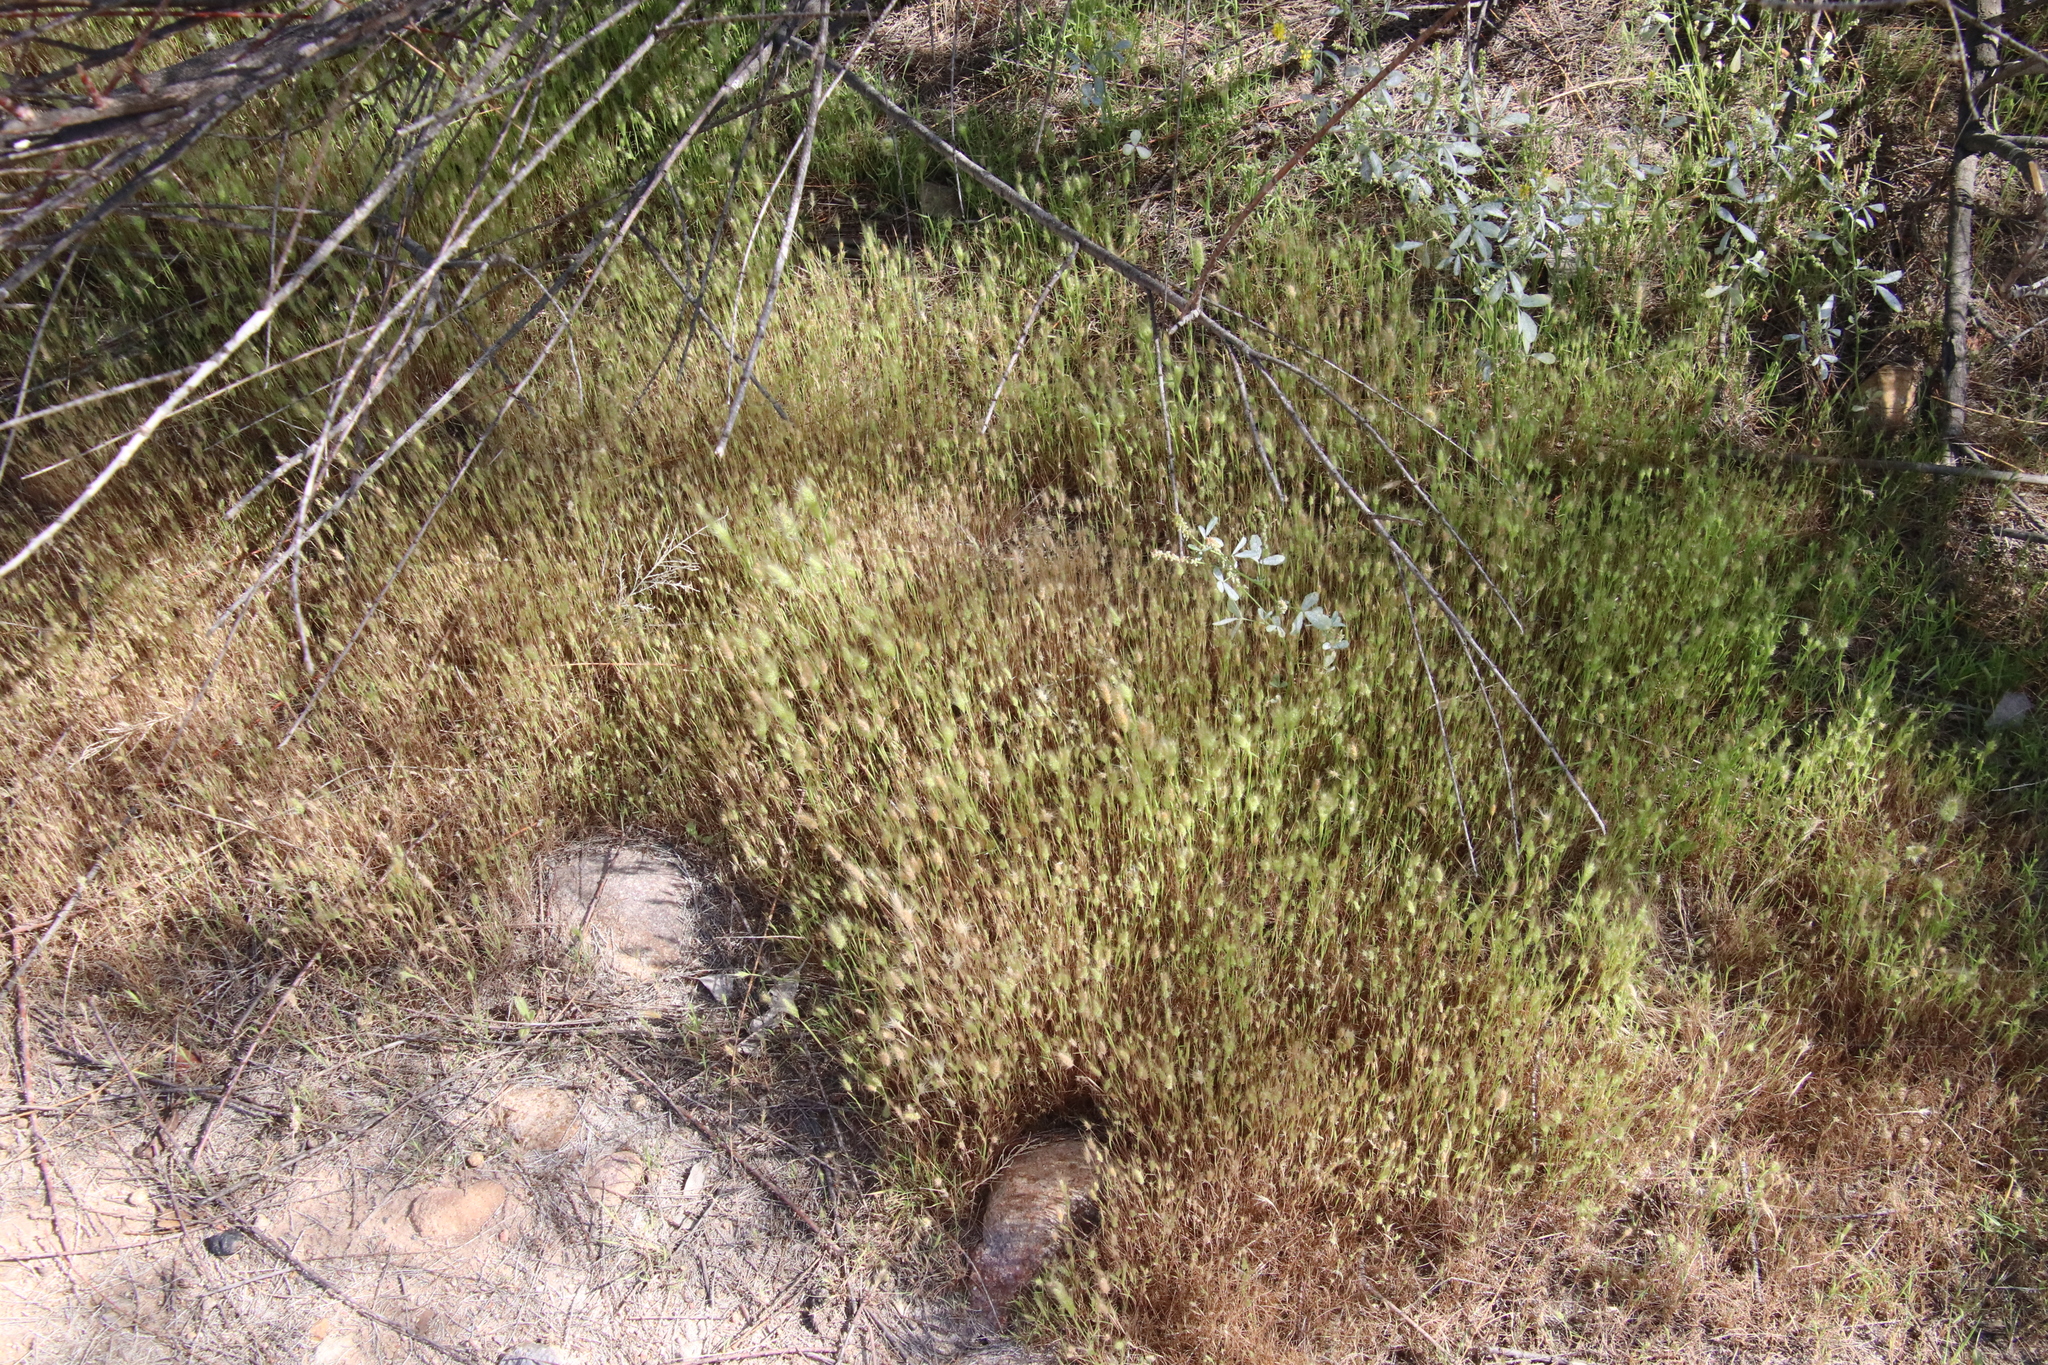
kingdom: Plantae
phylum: Tracheophyta
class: Liliopsida
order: Poales
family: Poaceae
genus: Festuca
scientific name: Festuca bromoides
